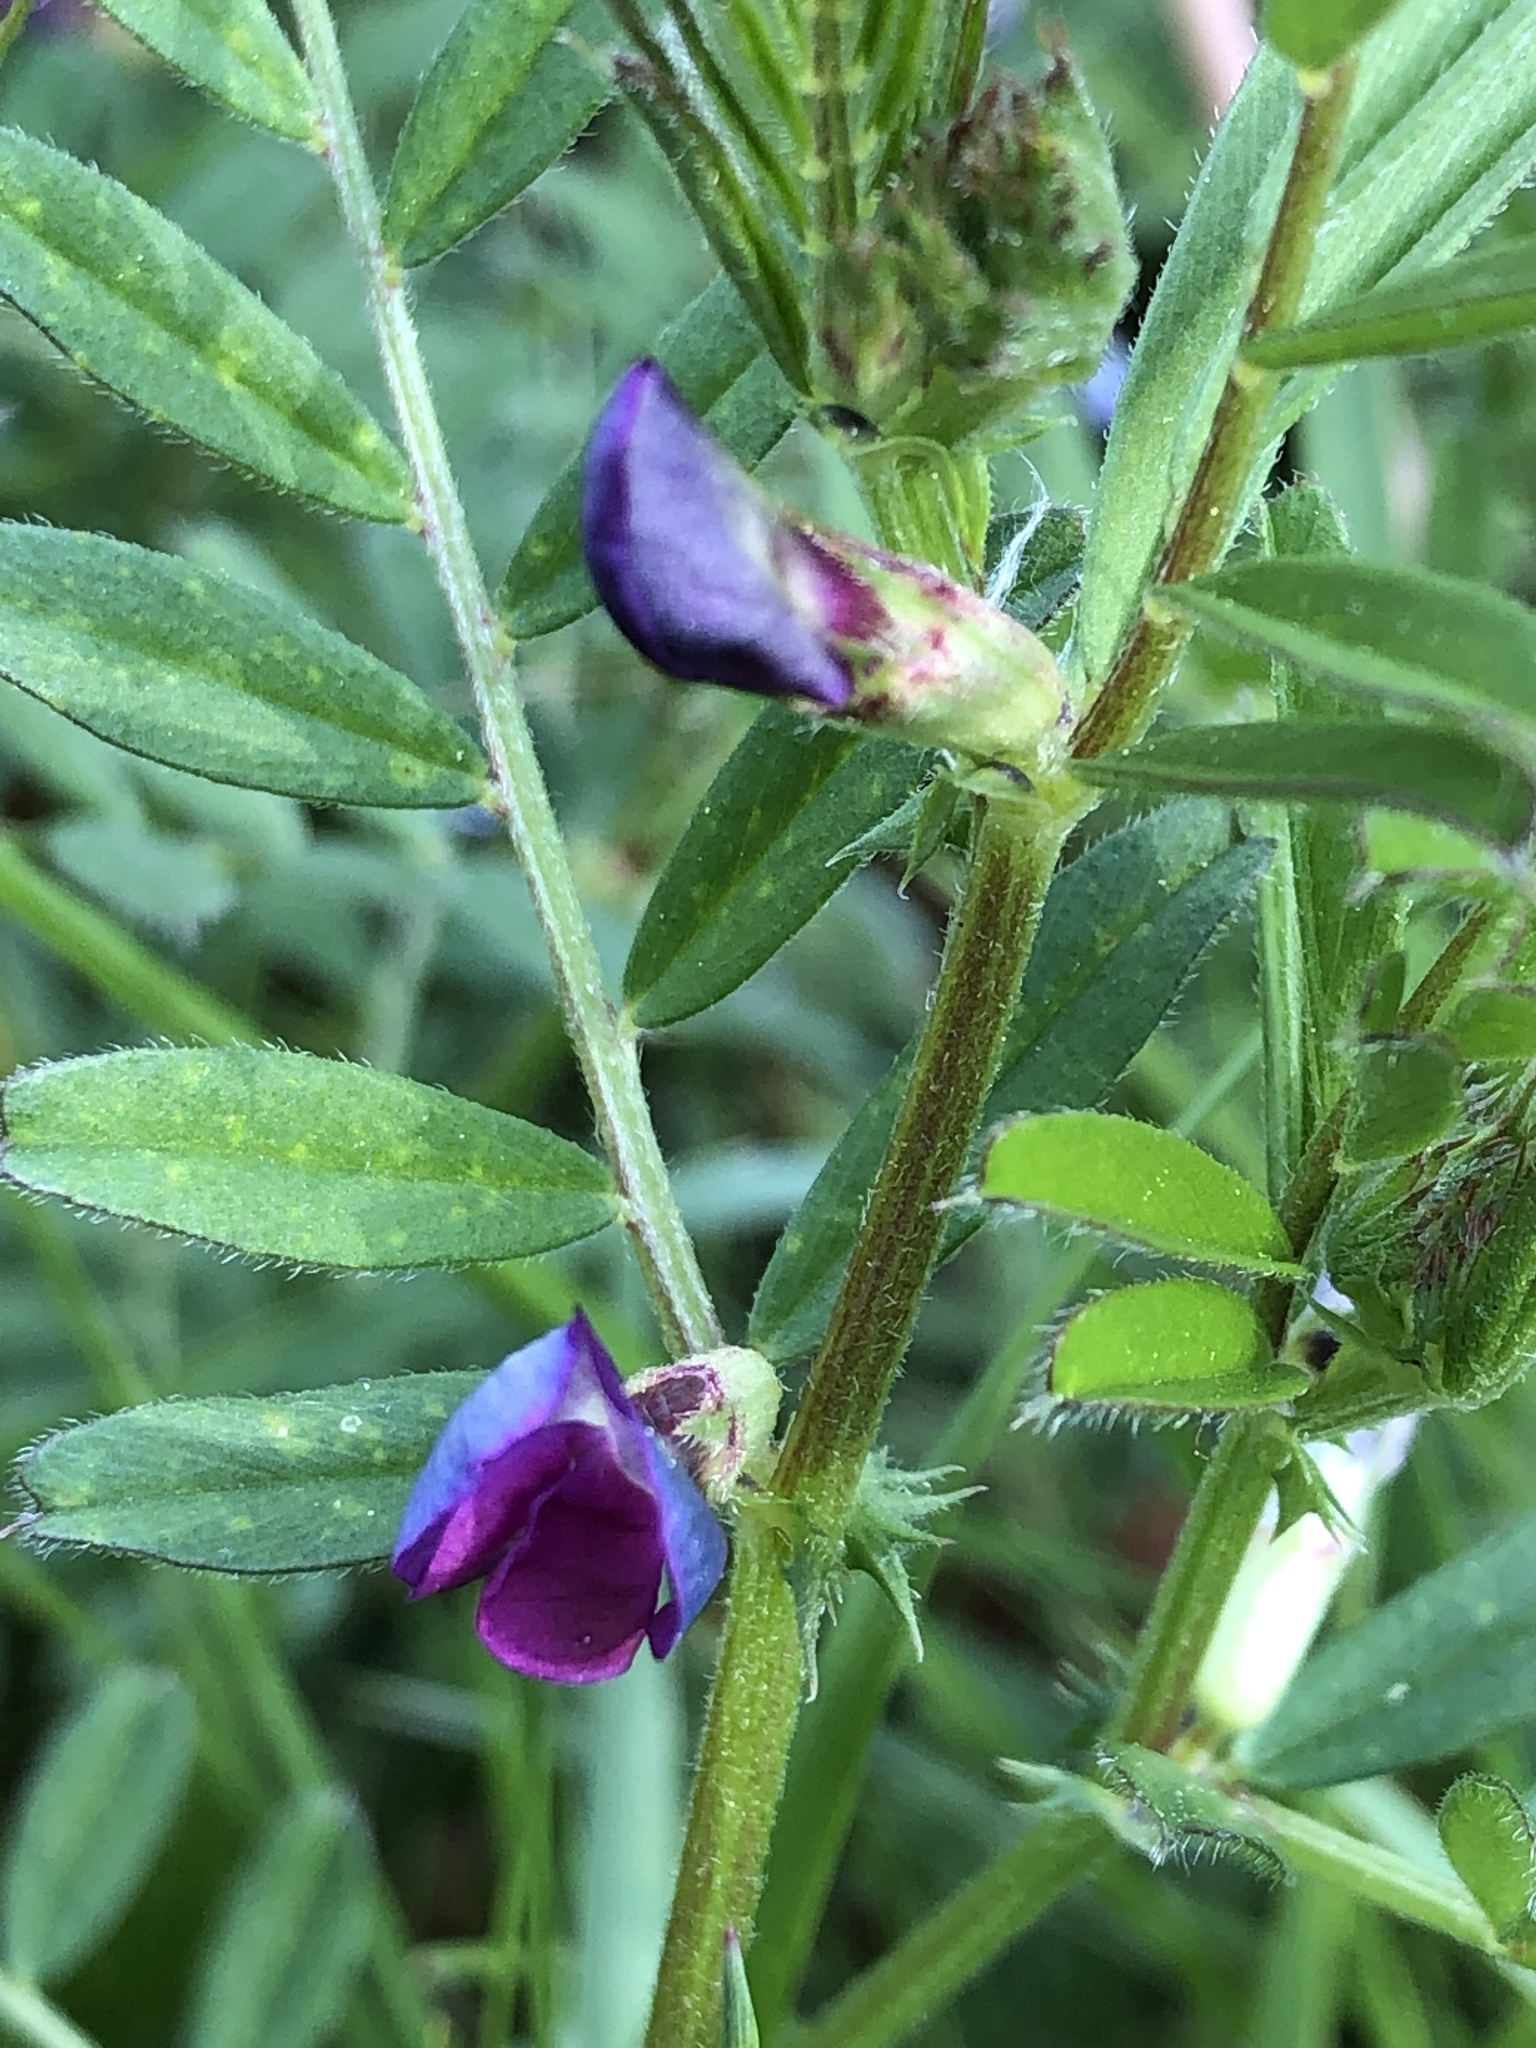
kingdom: Plantae
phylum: Tracheophyta
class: Magnoliopsida
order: Fabales
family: Fabaceae
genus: Vicia
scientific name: Vicia sativa
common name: Garden vetch
